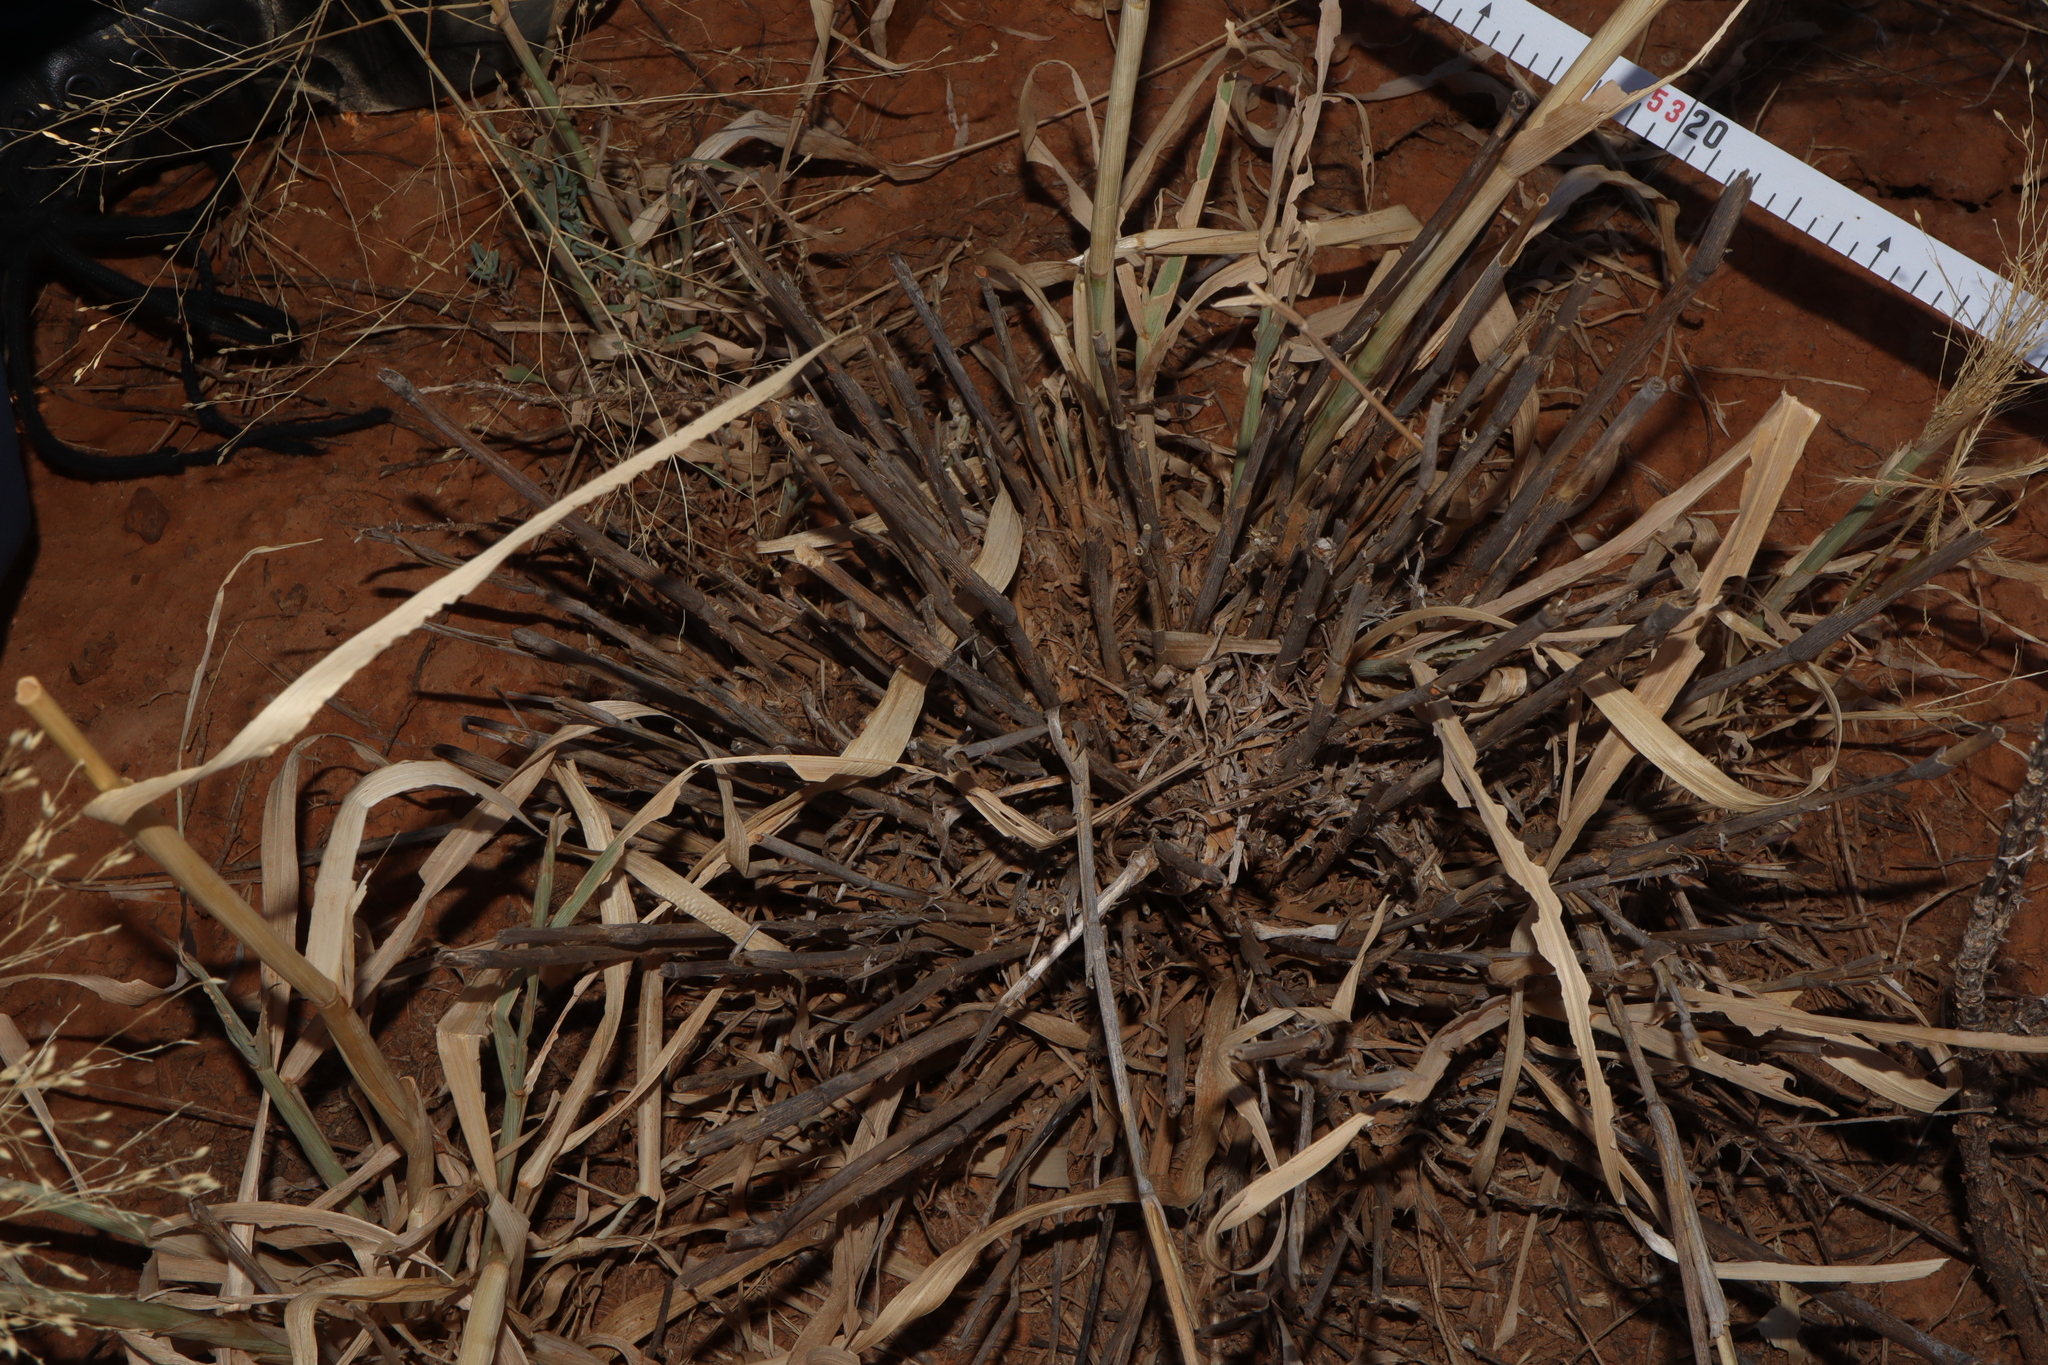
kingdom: Plantae
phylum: Tracheophyta
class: Liliopsida
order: Poales
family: Poaceae
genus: Panicum
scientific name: Panicum decompositum
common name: Australian millet
